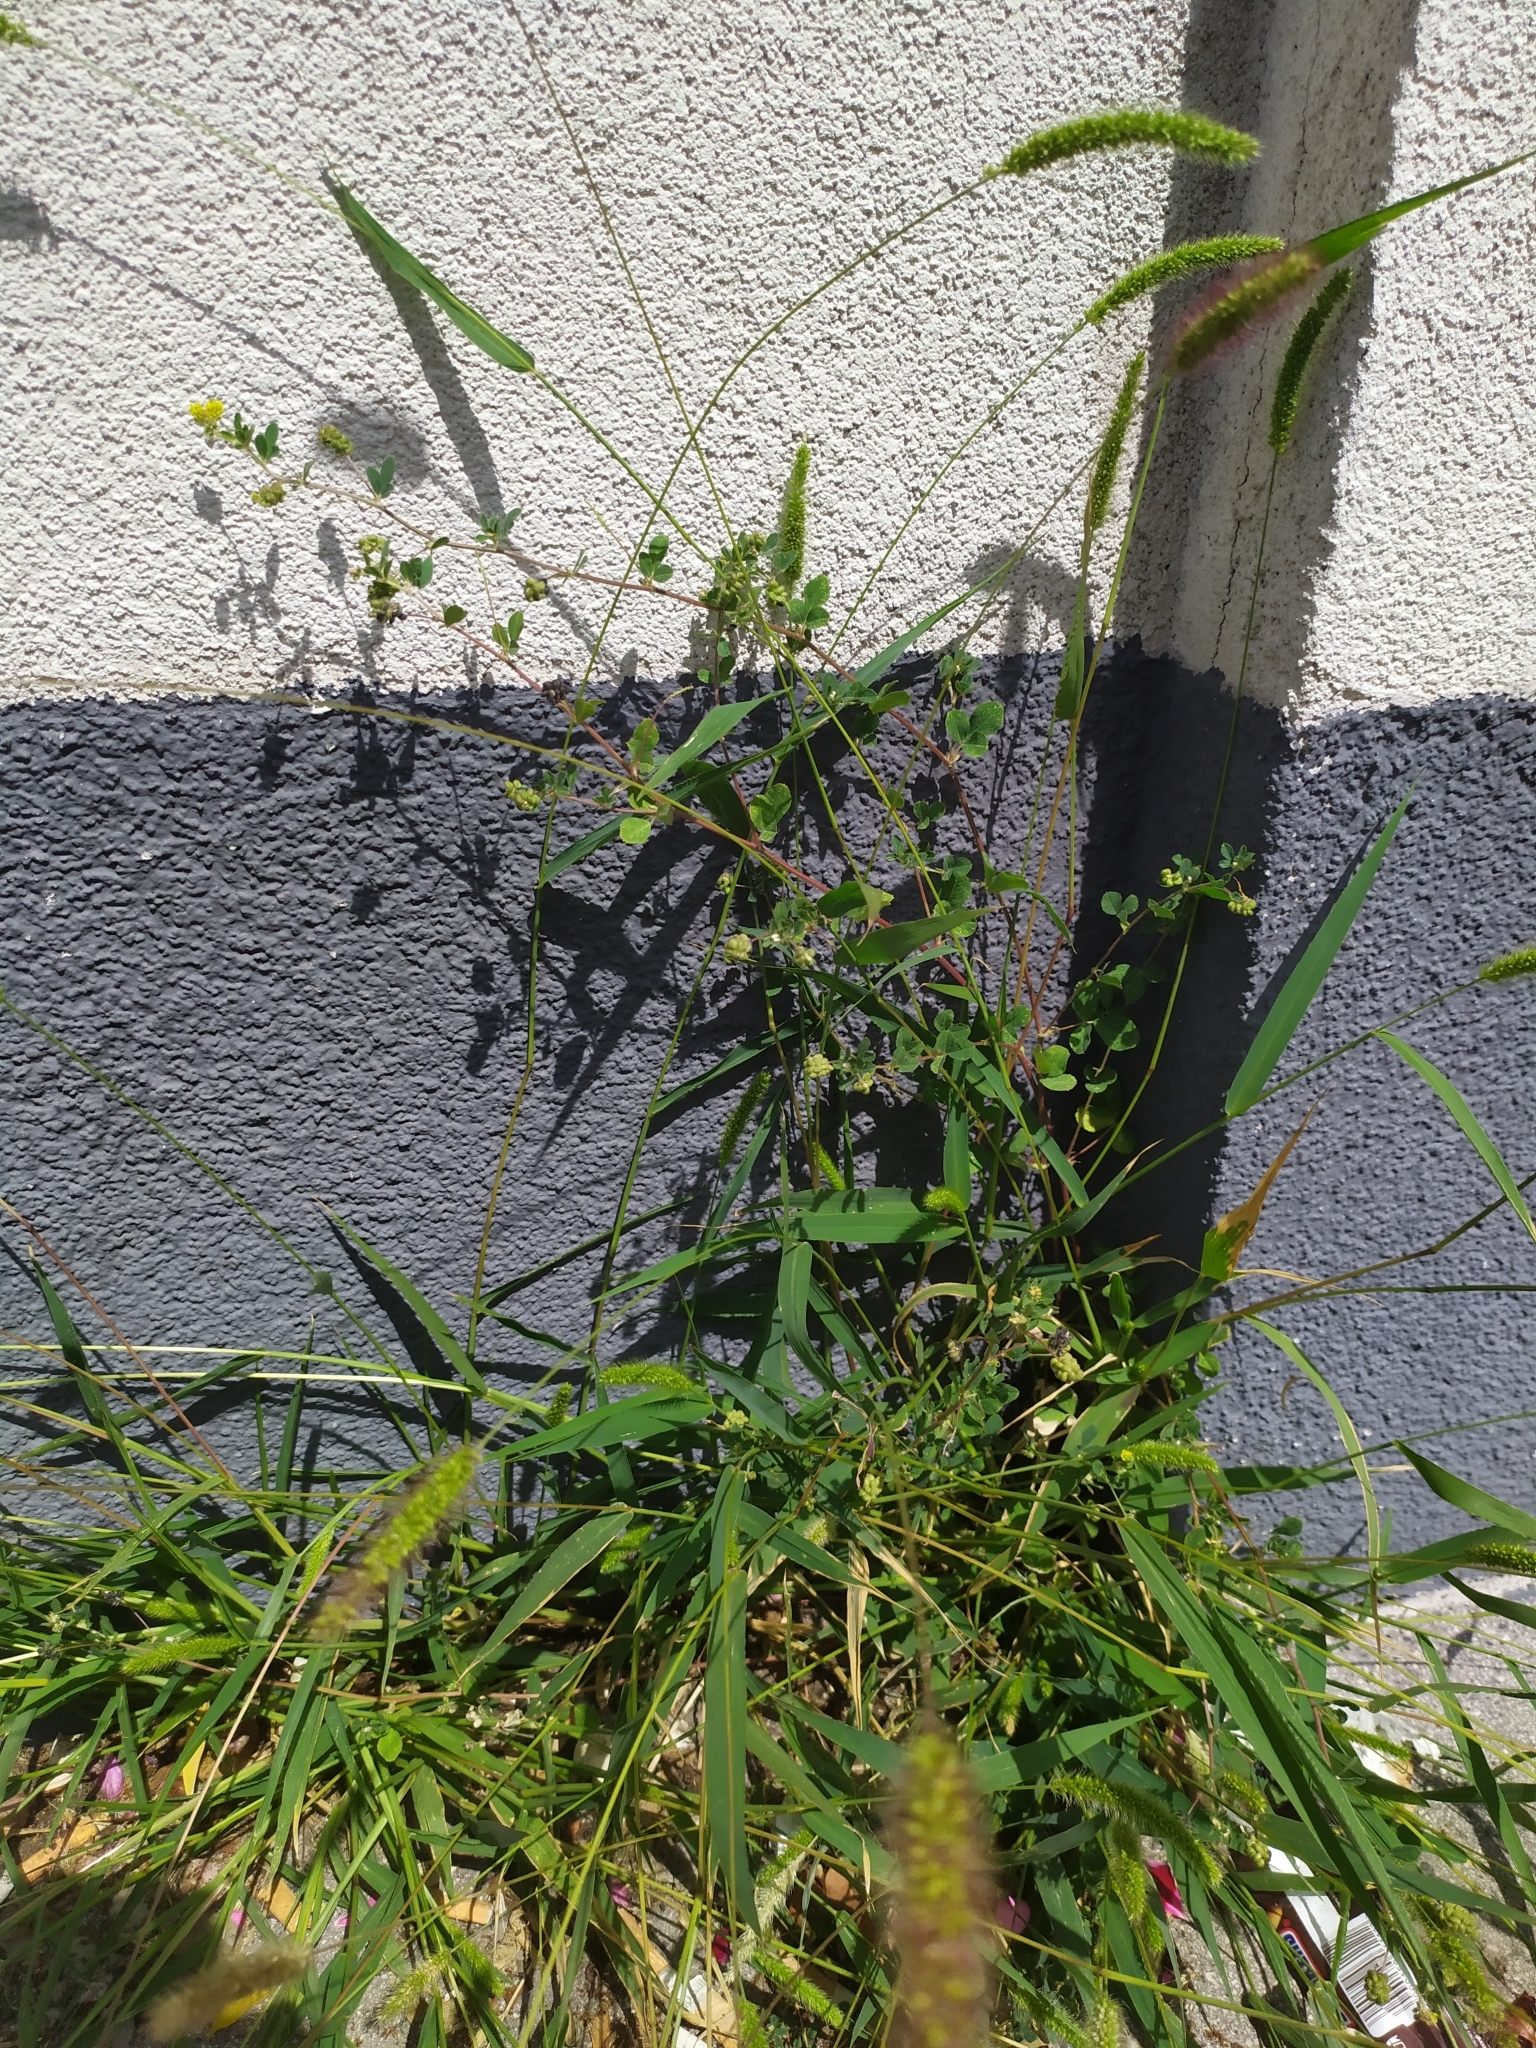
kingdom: Plantae
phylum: Tracheophyta
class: Magnoliopsida
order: Fabales
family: Fabaceae
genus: Medicago
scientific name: Medicago lupulina
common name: Black medick
